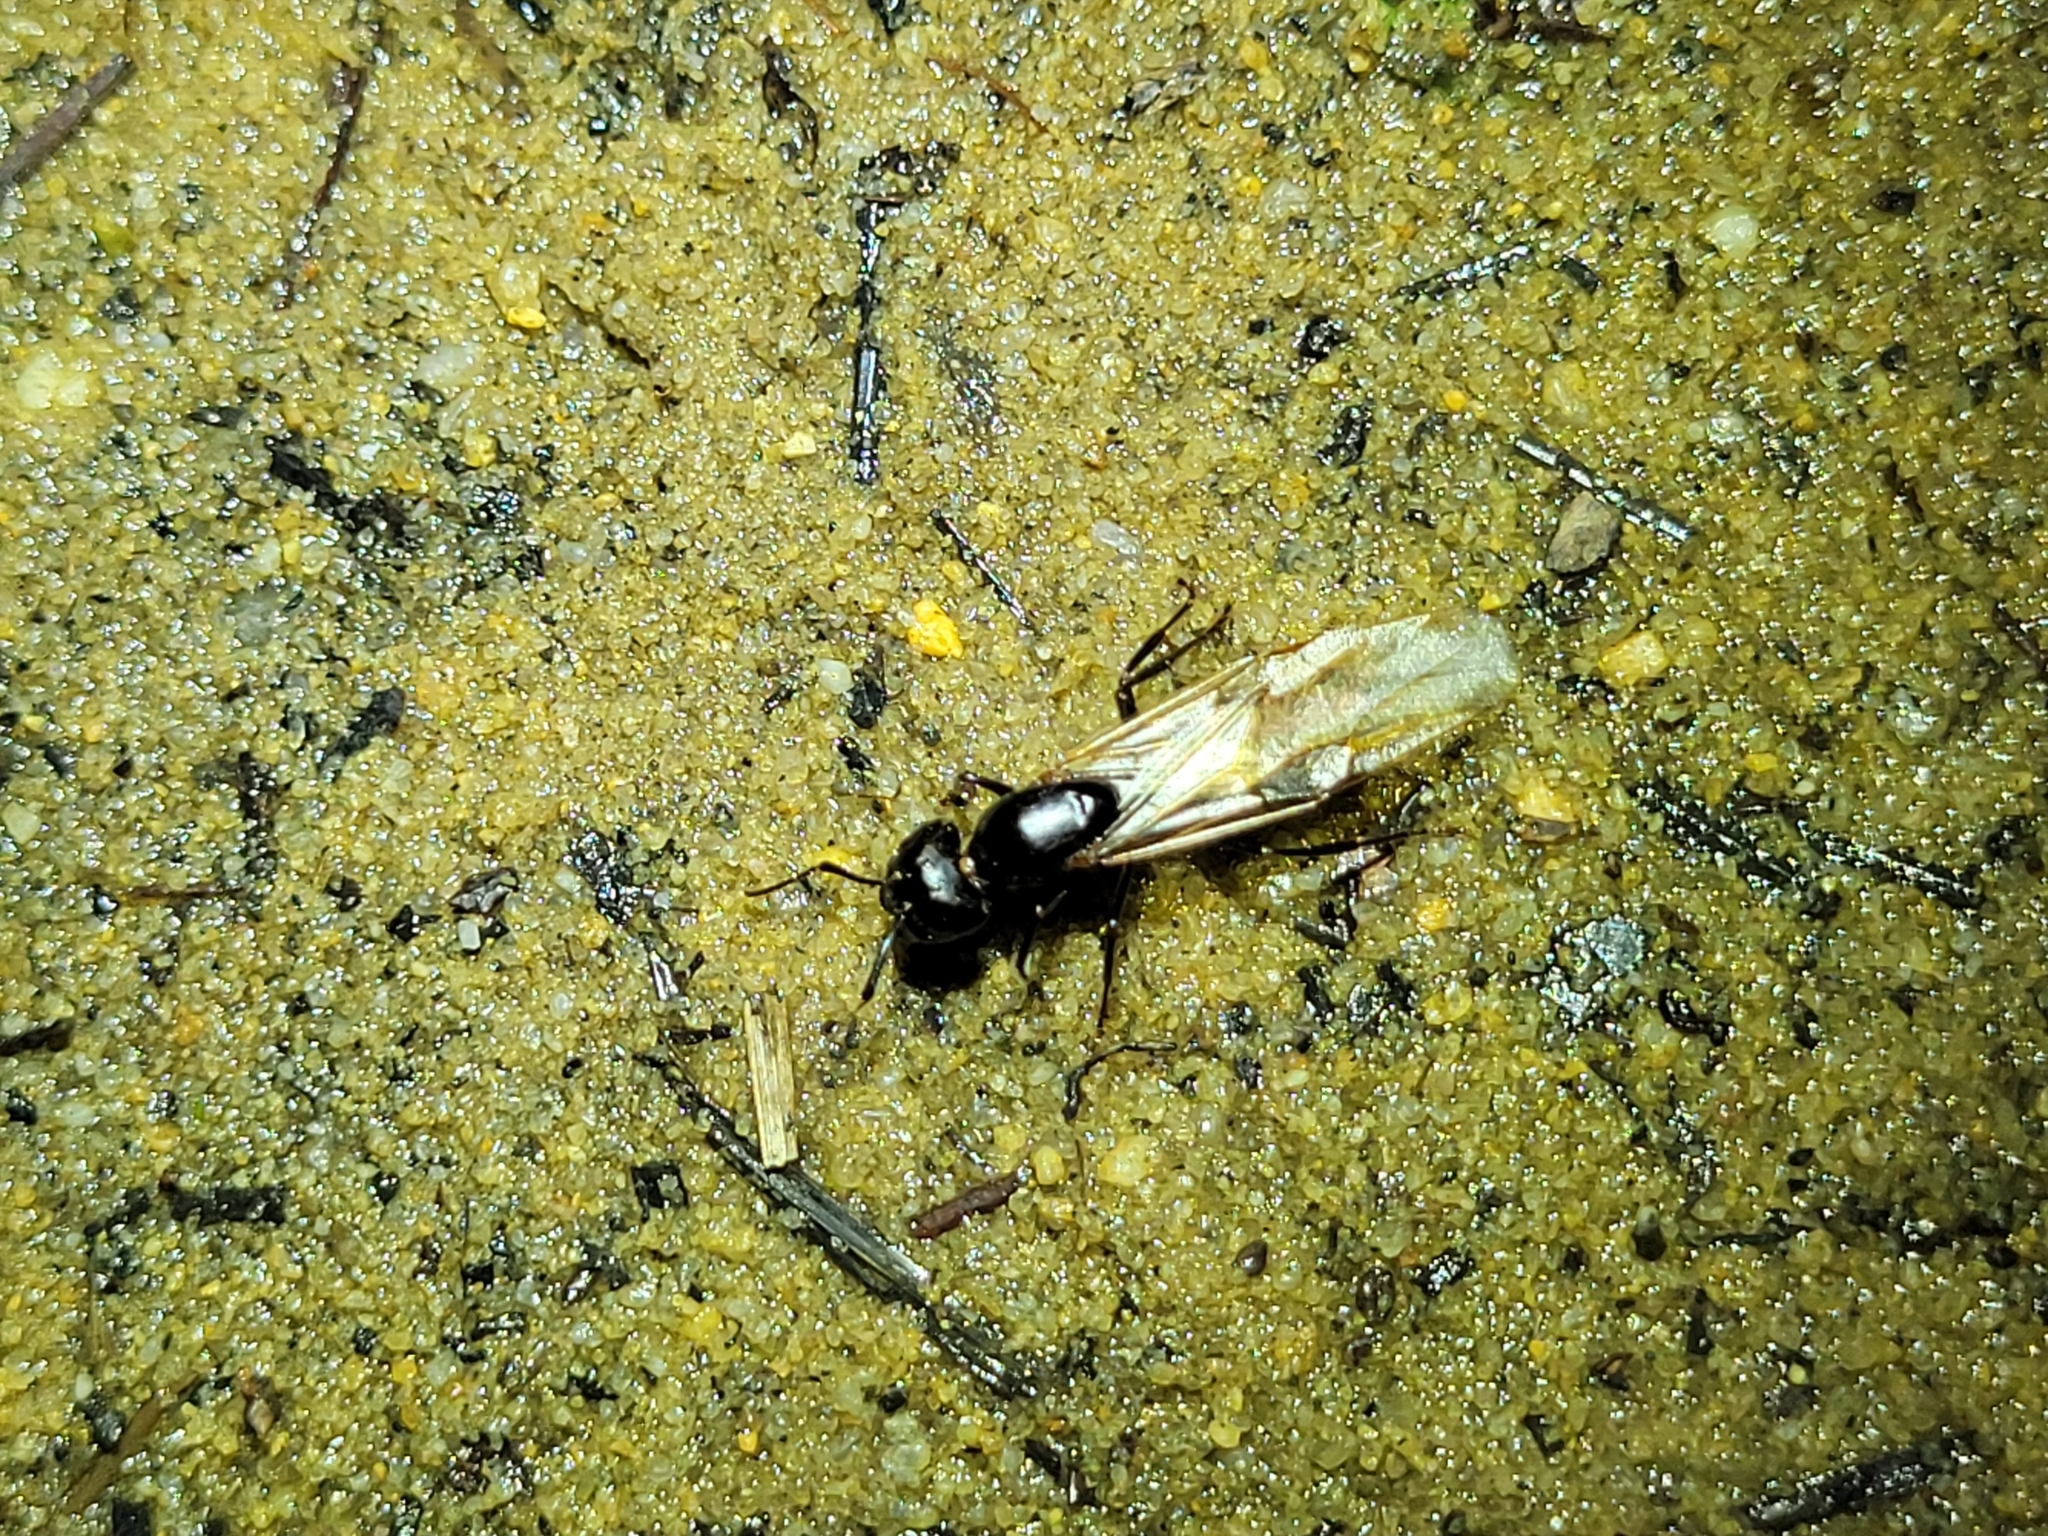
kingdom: Animalia
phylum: Arthropoda
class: Insecta
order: Hymenoptera
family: Formicidae
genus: Camponotus
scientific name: Camponotus pennsylvanicus
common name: Black carpenter ant
